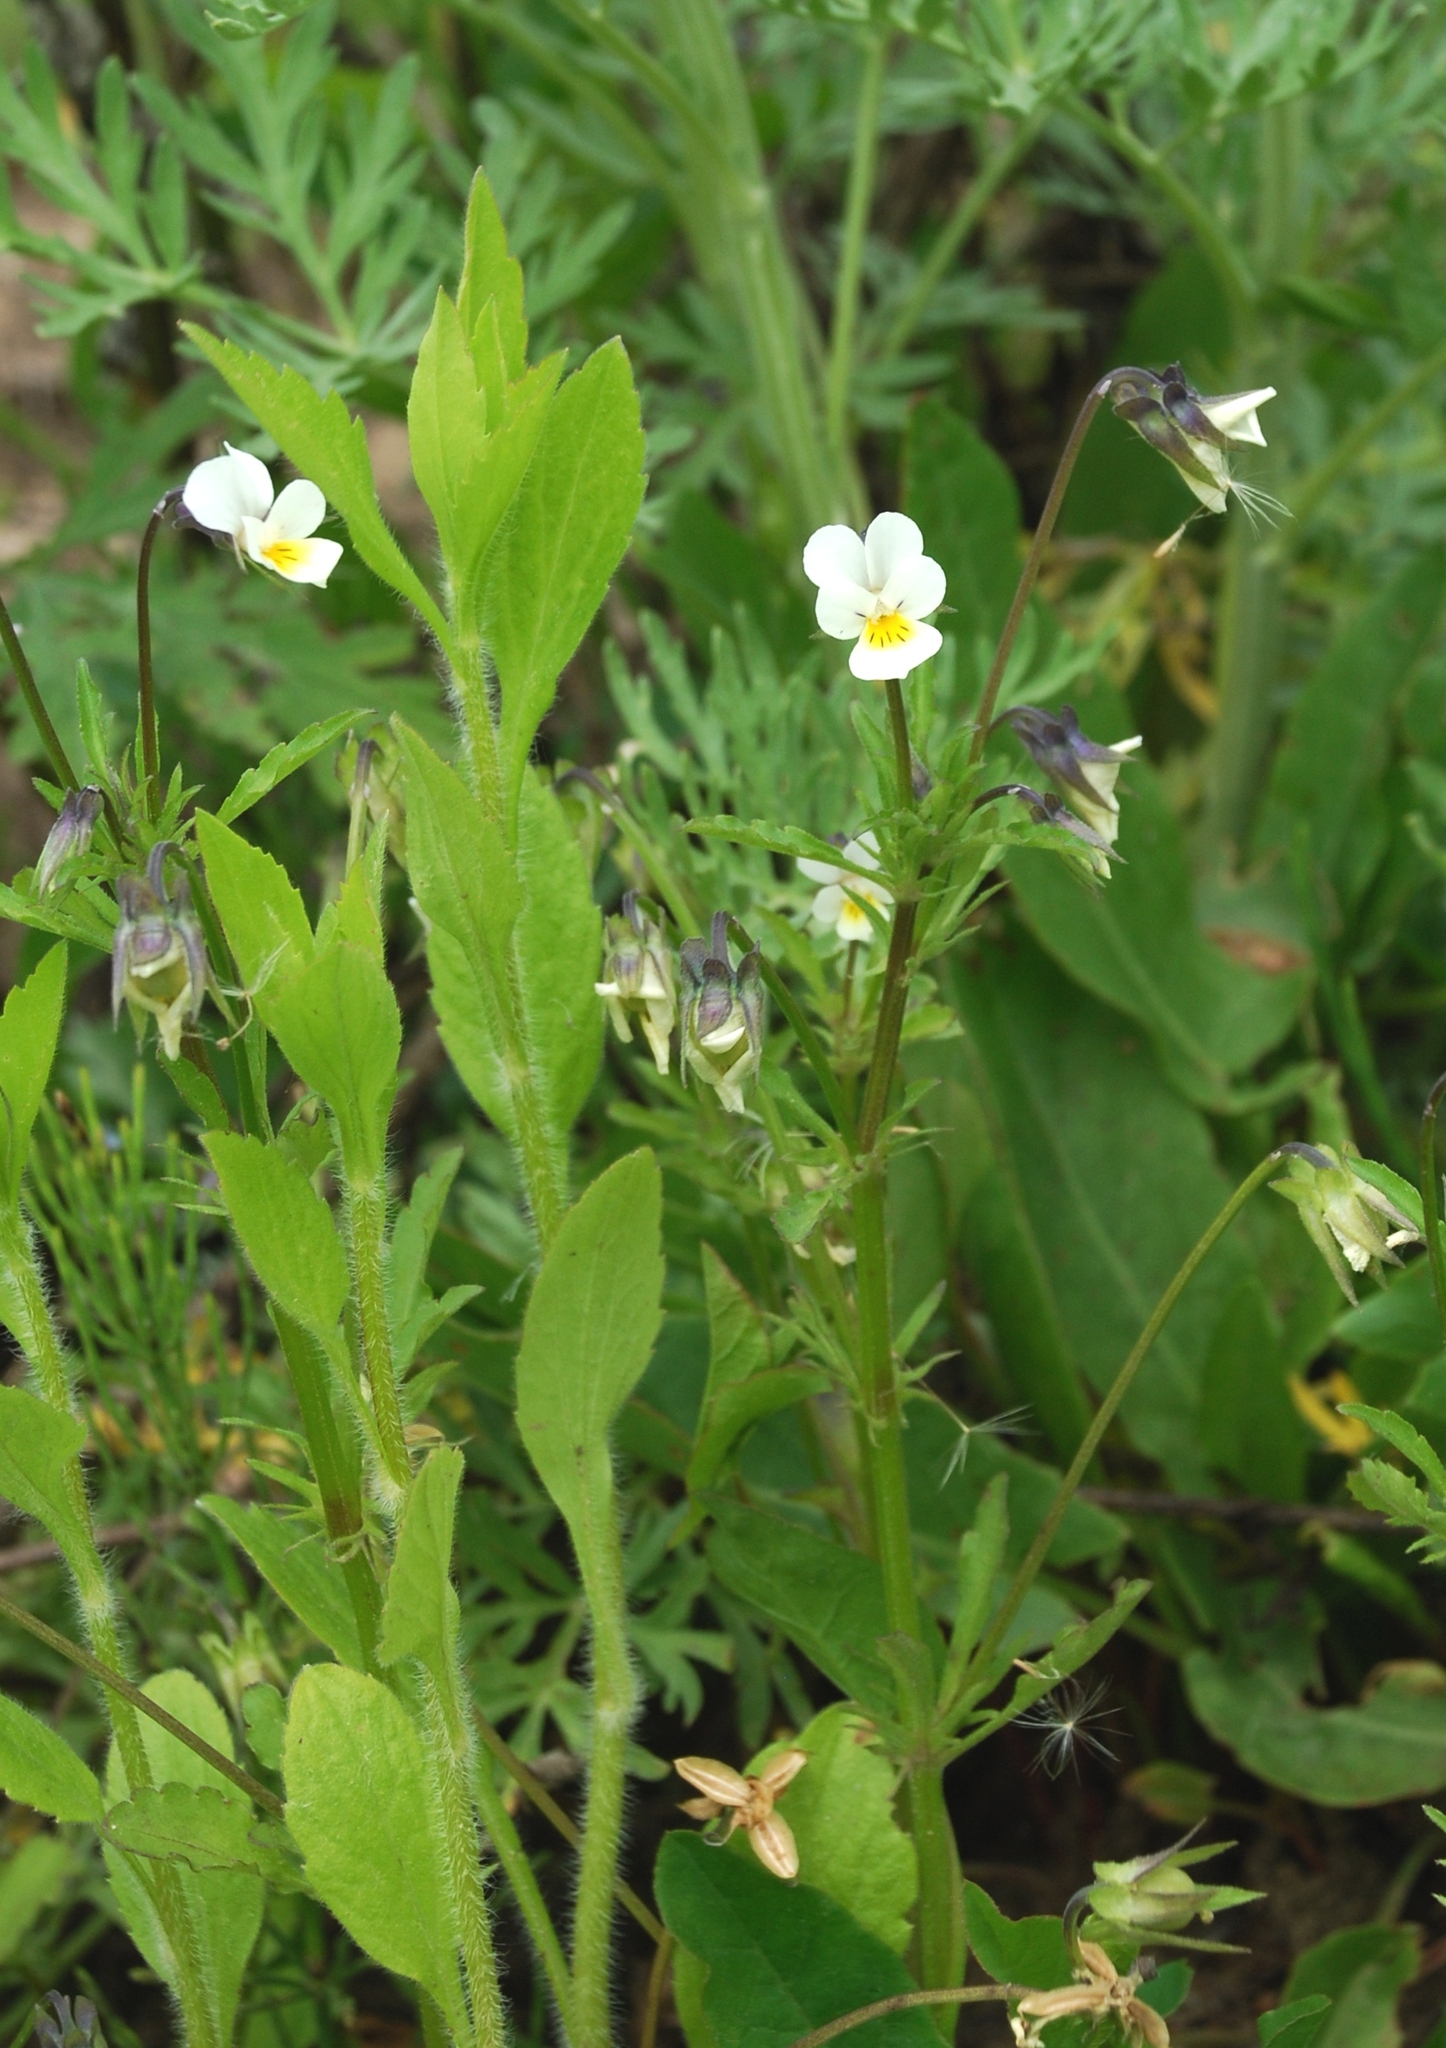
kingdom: Plantae
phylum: Tracheophyta
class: Magnoliopsida
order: Malpighiales
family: Violaceae
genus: Viola
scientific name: Viola arvensis
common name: Field pansy
